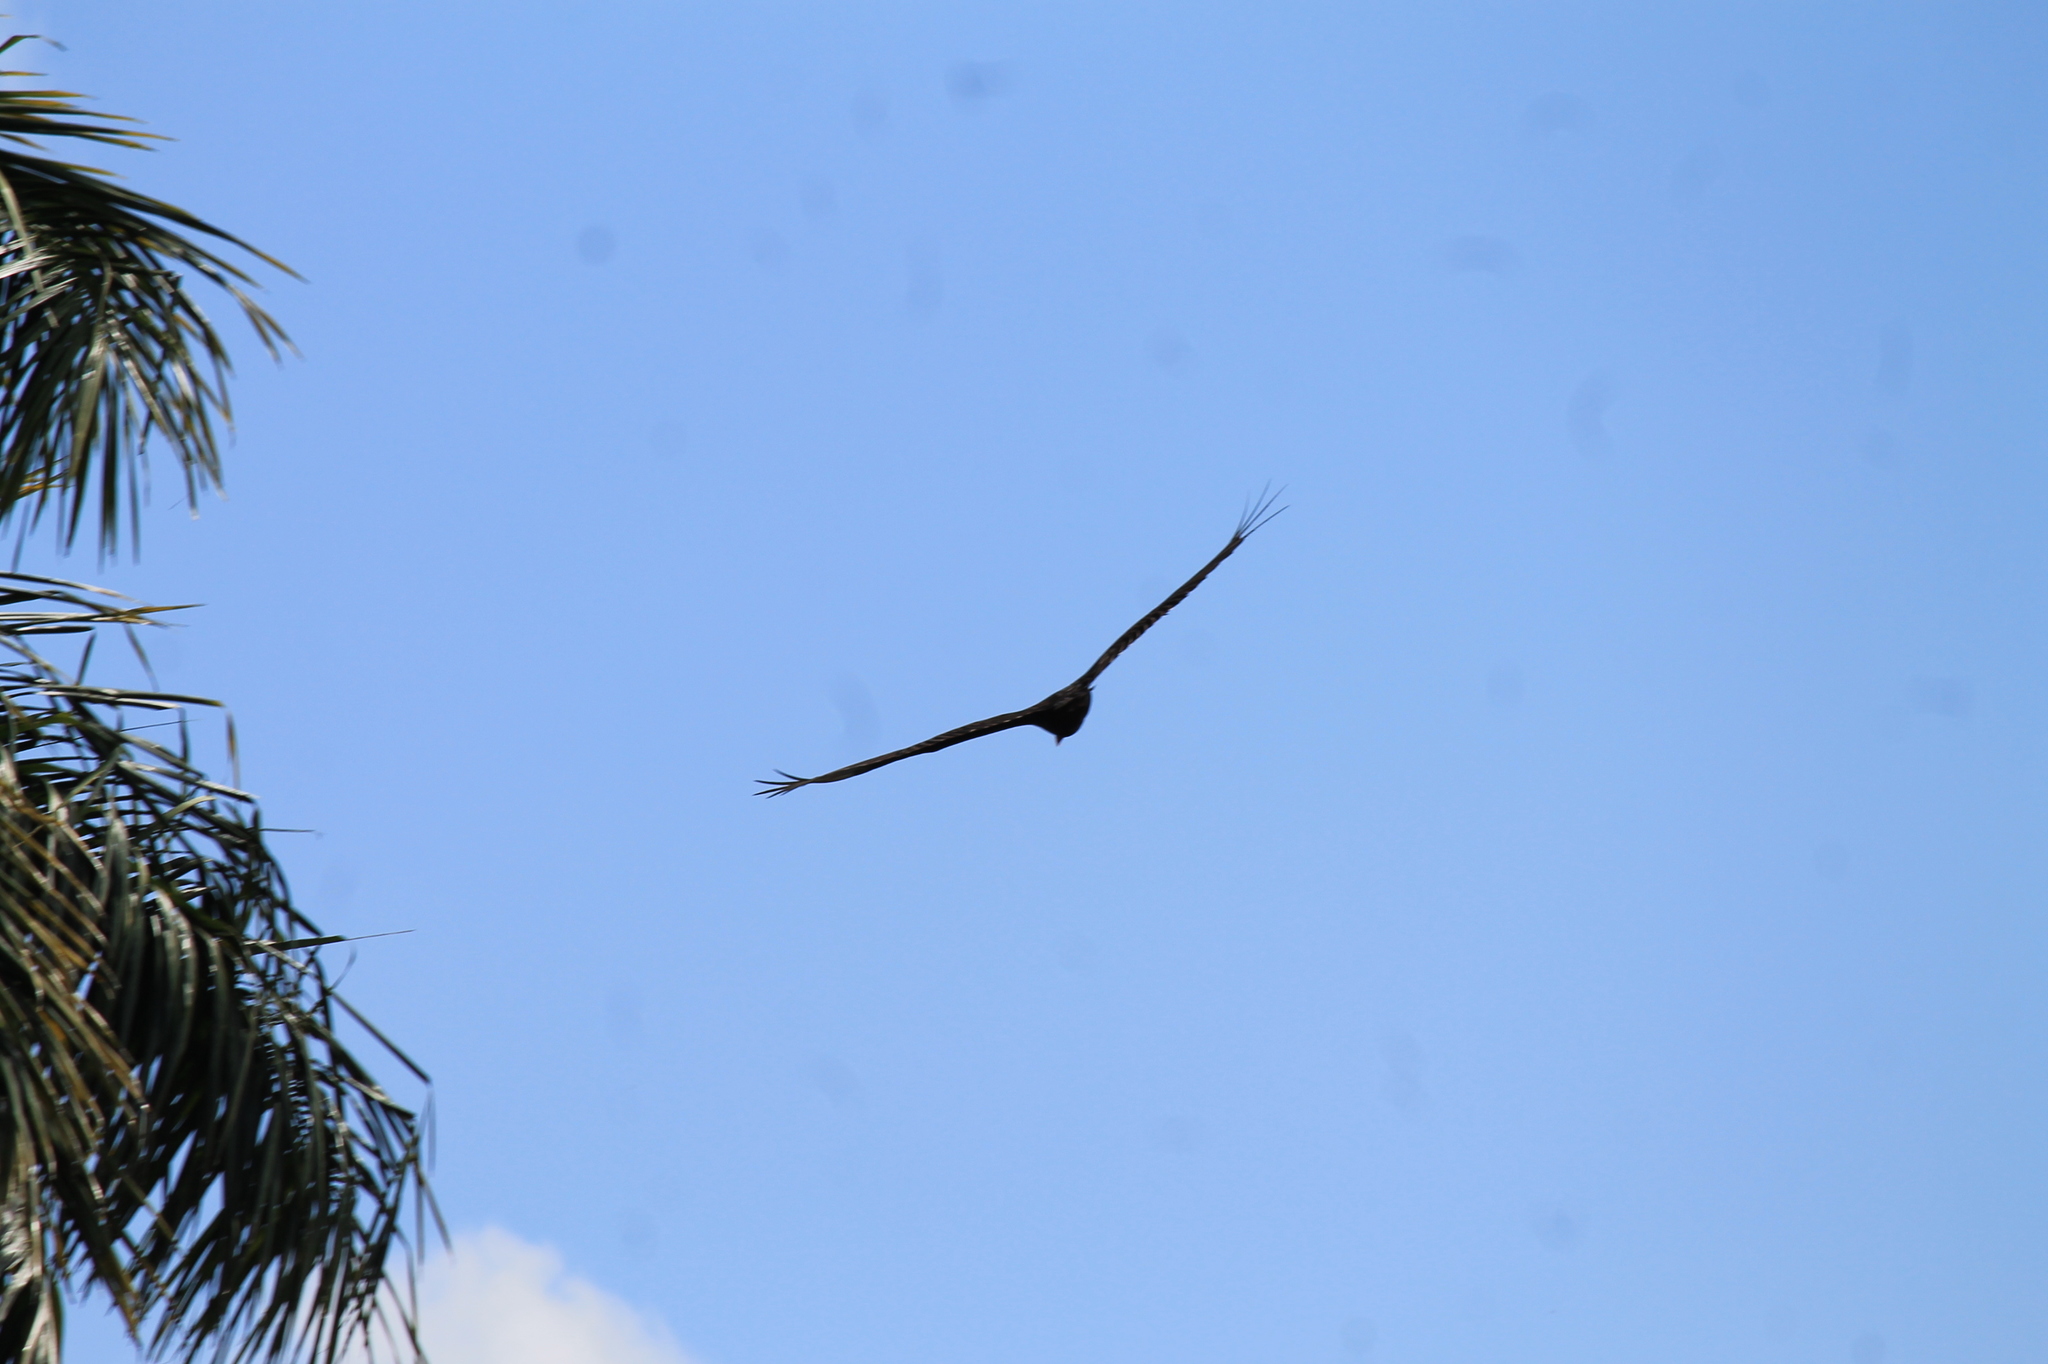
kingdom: Animalia
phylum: Chordata
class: Aves
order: Accipitriformes
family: Cathartidae
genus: Cathartes
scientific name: Cathartes aura
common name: Turkey vulture
